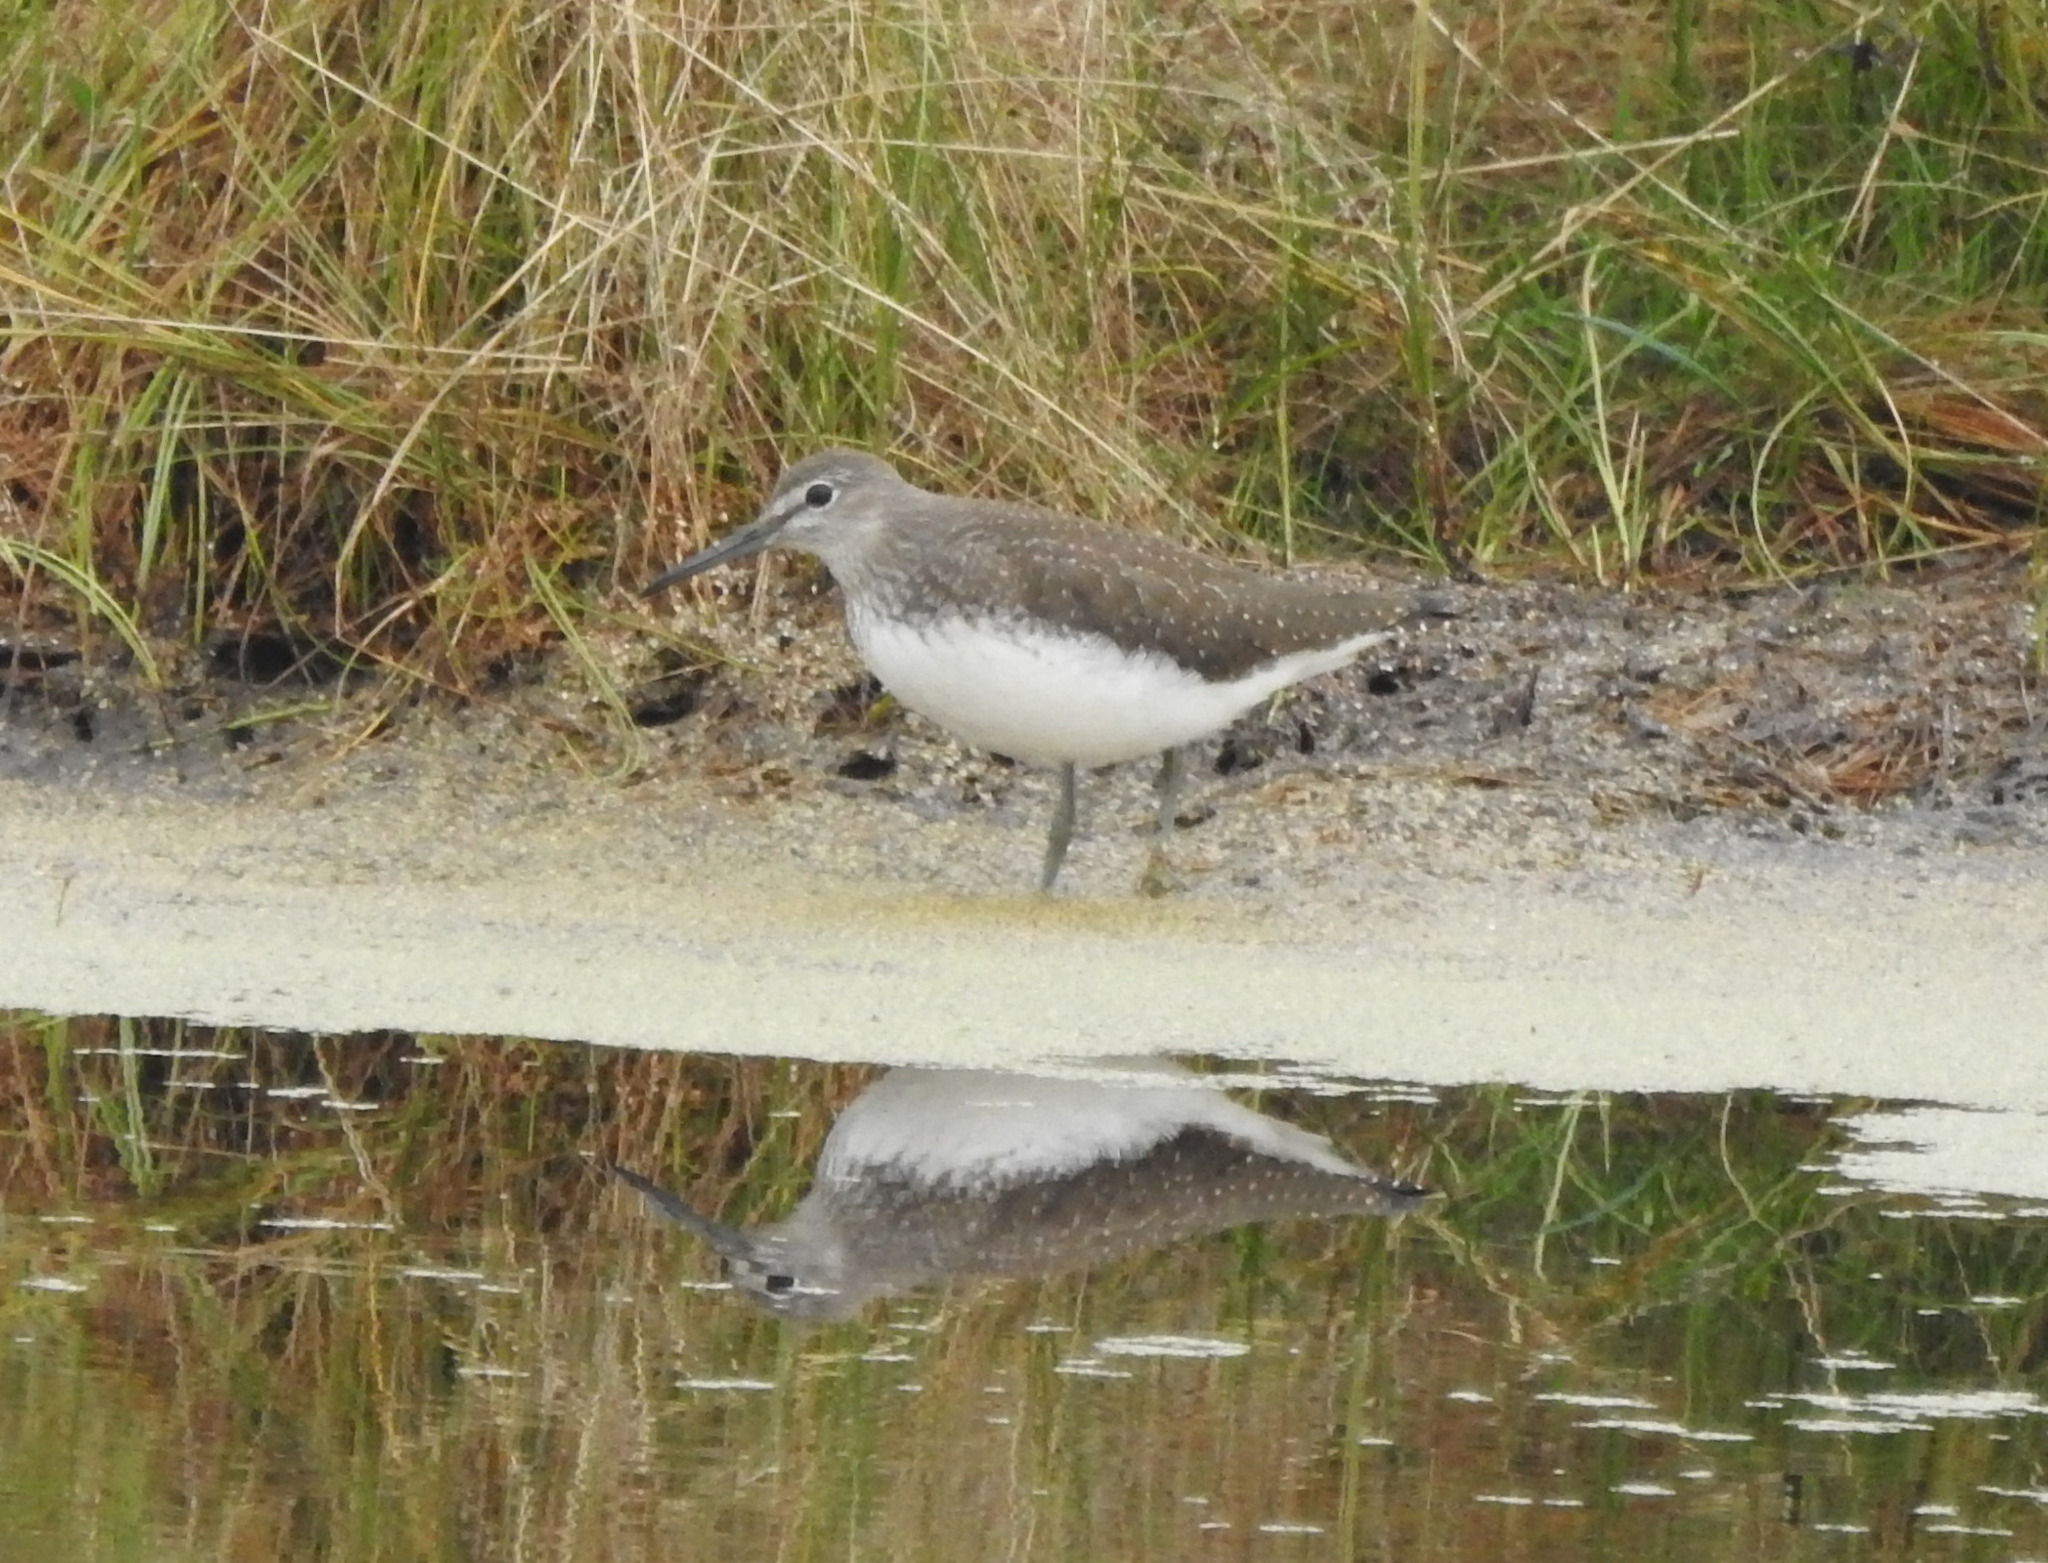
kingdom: Animalia
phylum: Chordata
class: Aves
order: Charadriiformes
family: Scolopacidae
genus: Tringa
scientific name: Tringa ochropus
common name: Green sandpiper
